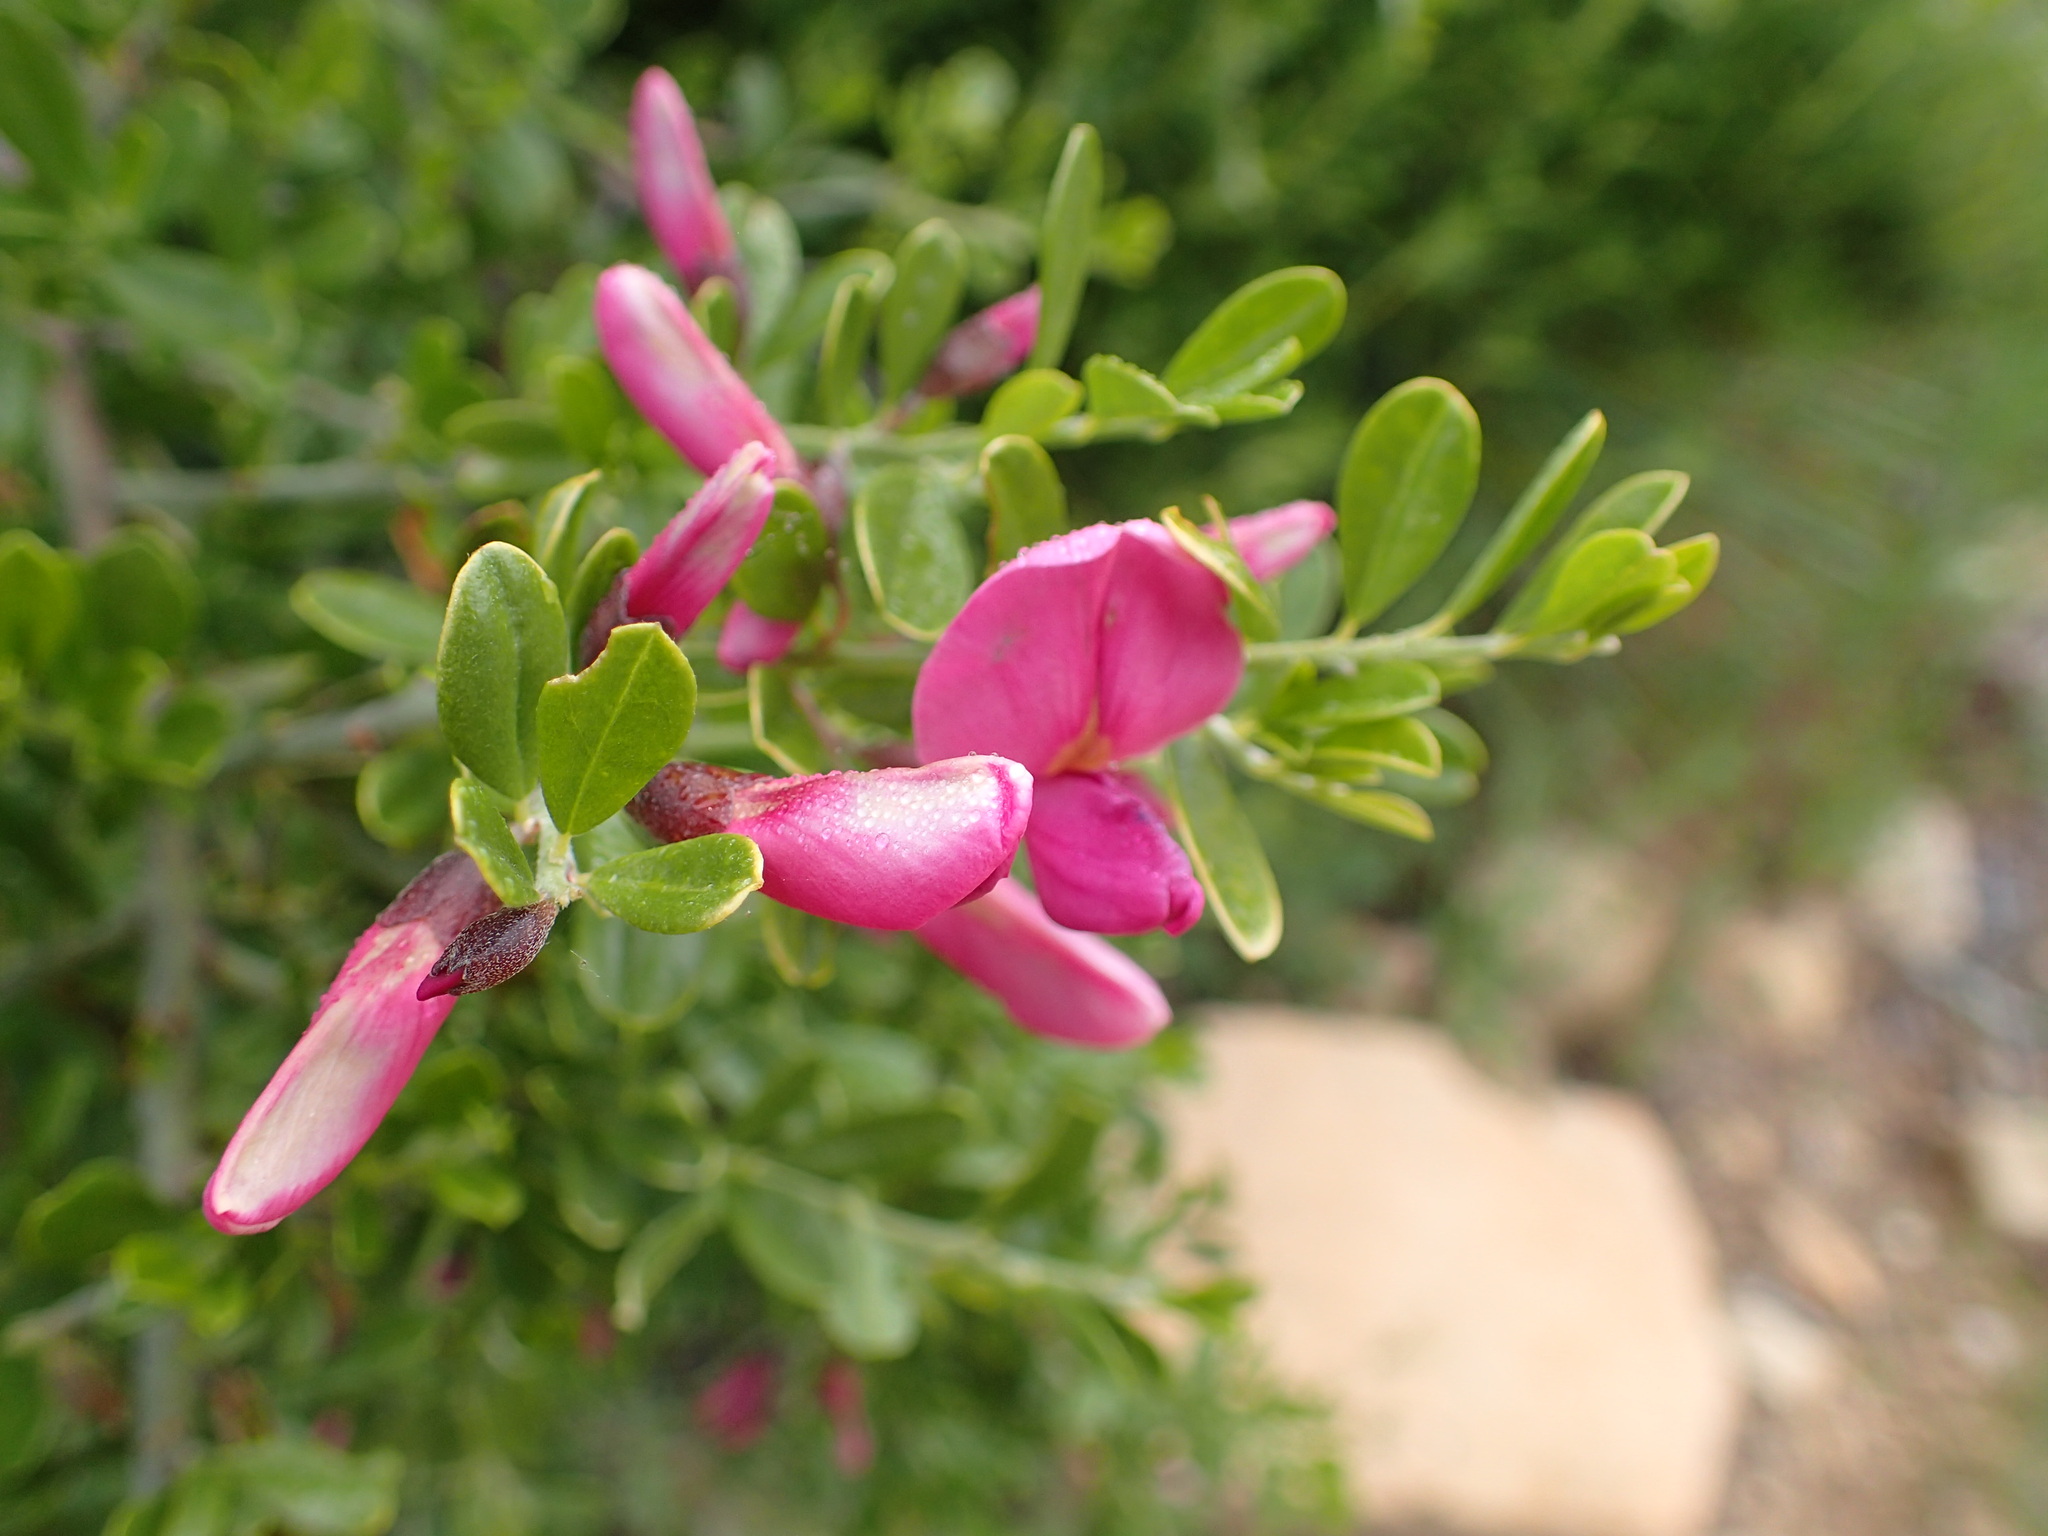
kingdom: Plantae
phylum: Tracheophyta
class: Magnoliopsida
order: Fabales
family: Fabaceae
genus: Pickeringia
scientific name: Pickeringia montana
